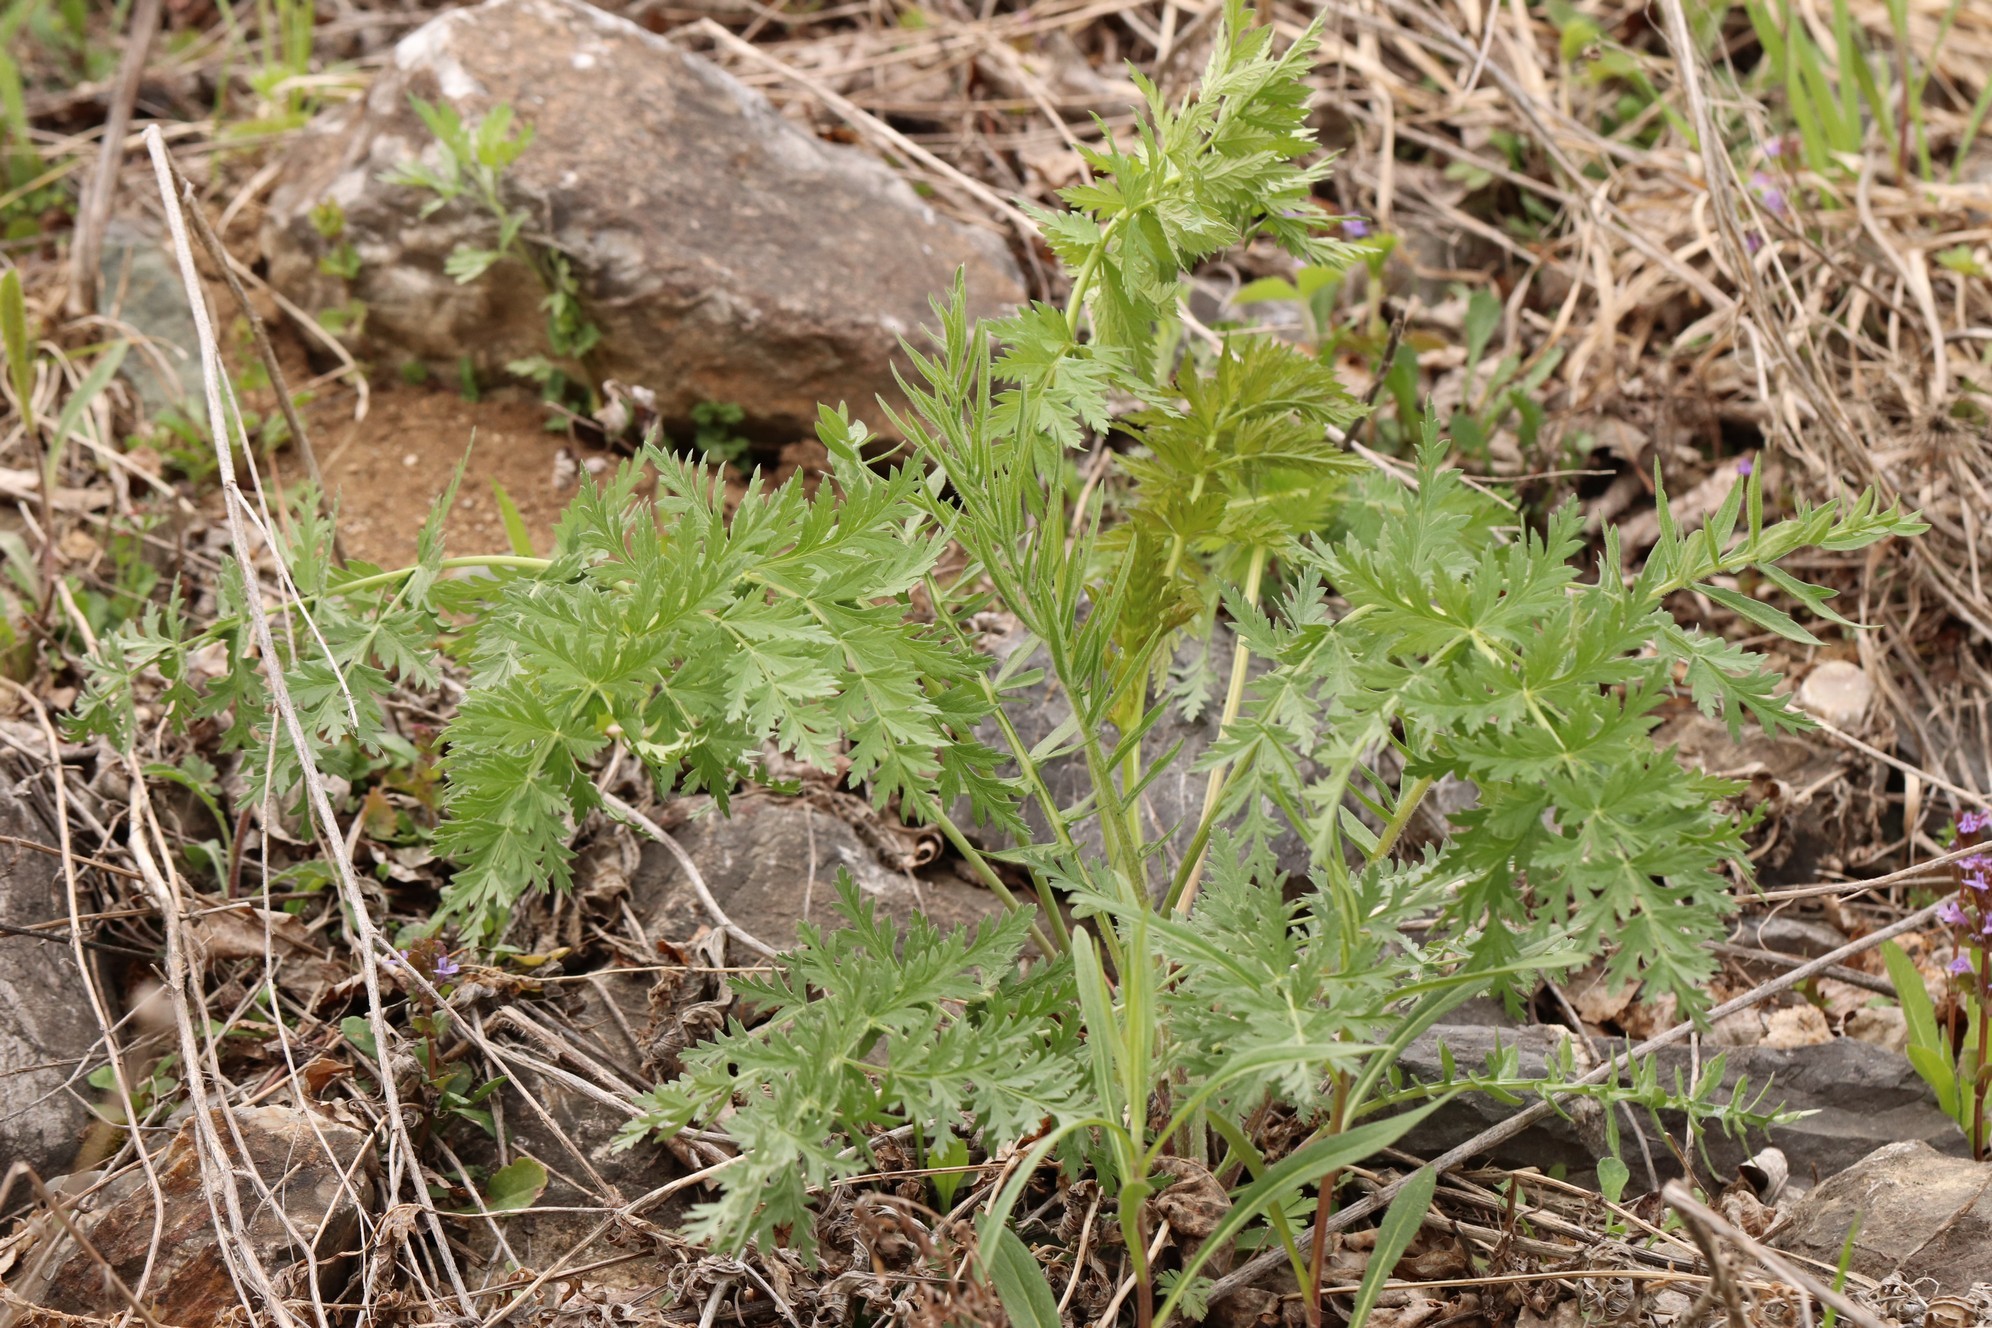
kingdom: Plantae
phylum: Tracheophyta
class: Magnoliopsida
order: Apiales
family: Apiaceae
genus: Seseli
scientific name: Seseli libanotis
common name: Mooncarrot
